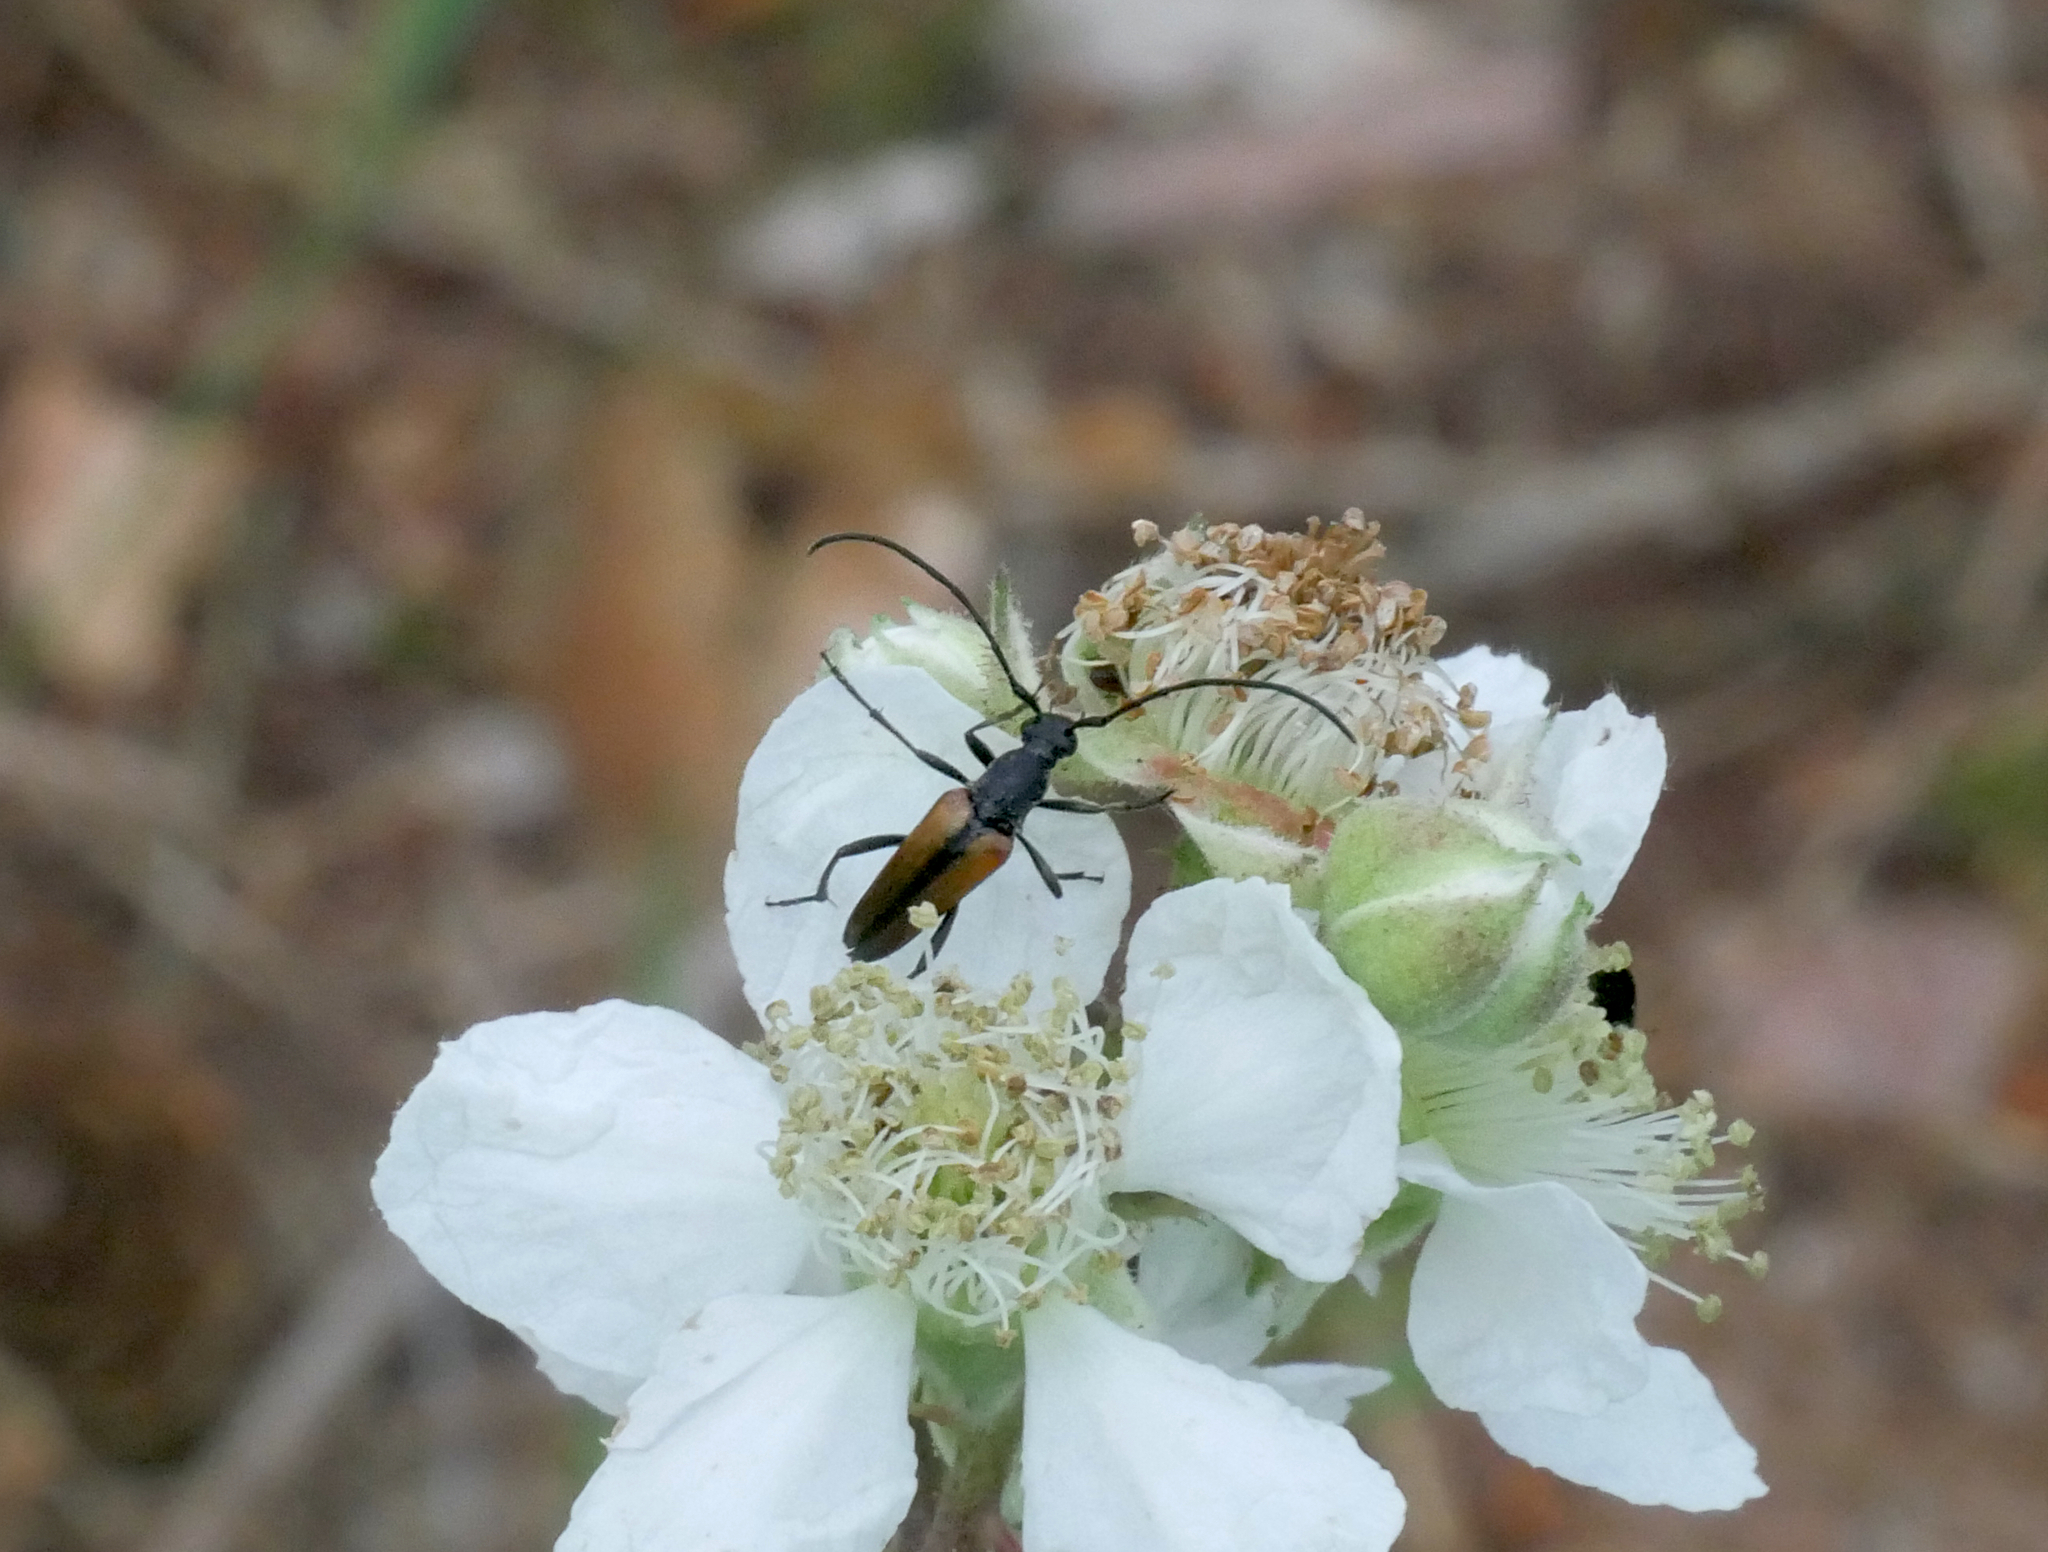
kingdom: Animalia
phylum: Arthropoda
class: Insecta
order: Coleoptera
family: Cerambycidae
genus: Stenurella
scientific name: Stenurella melanura
